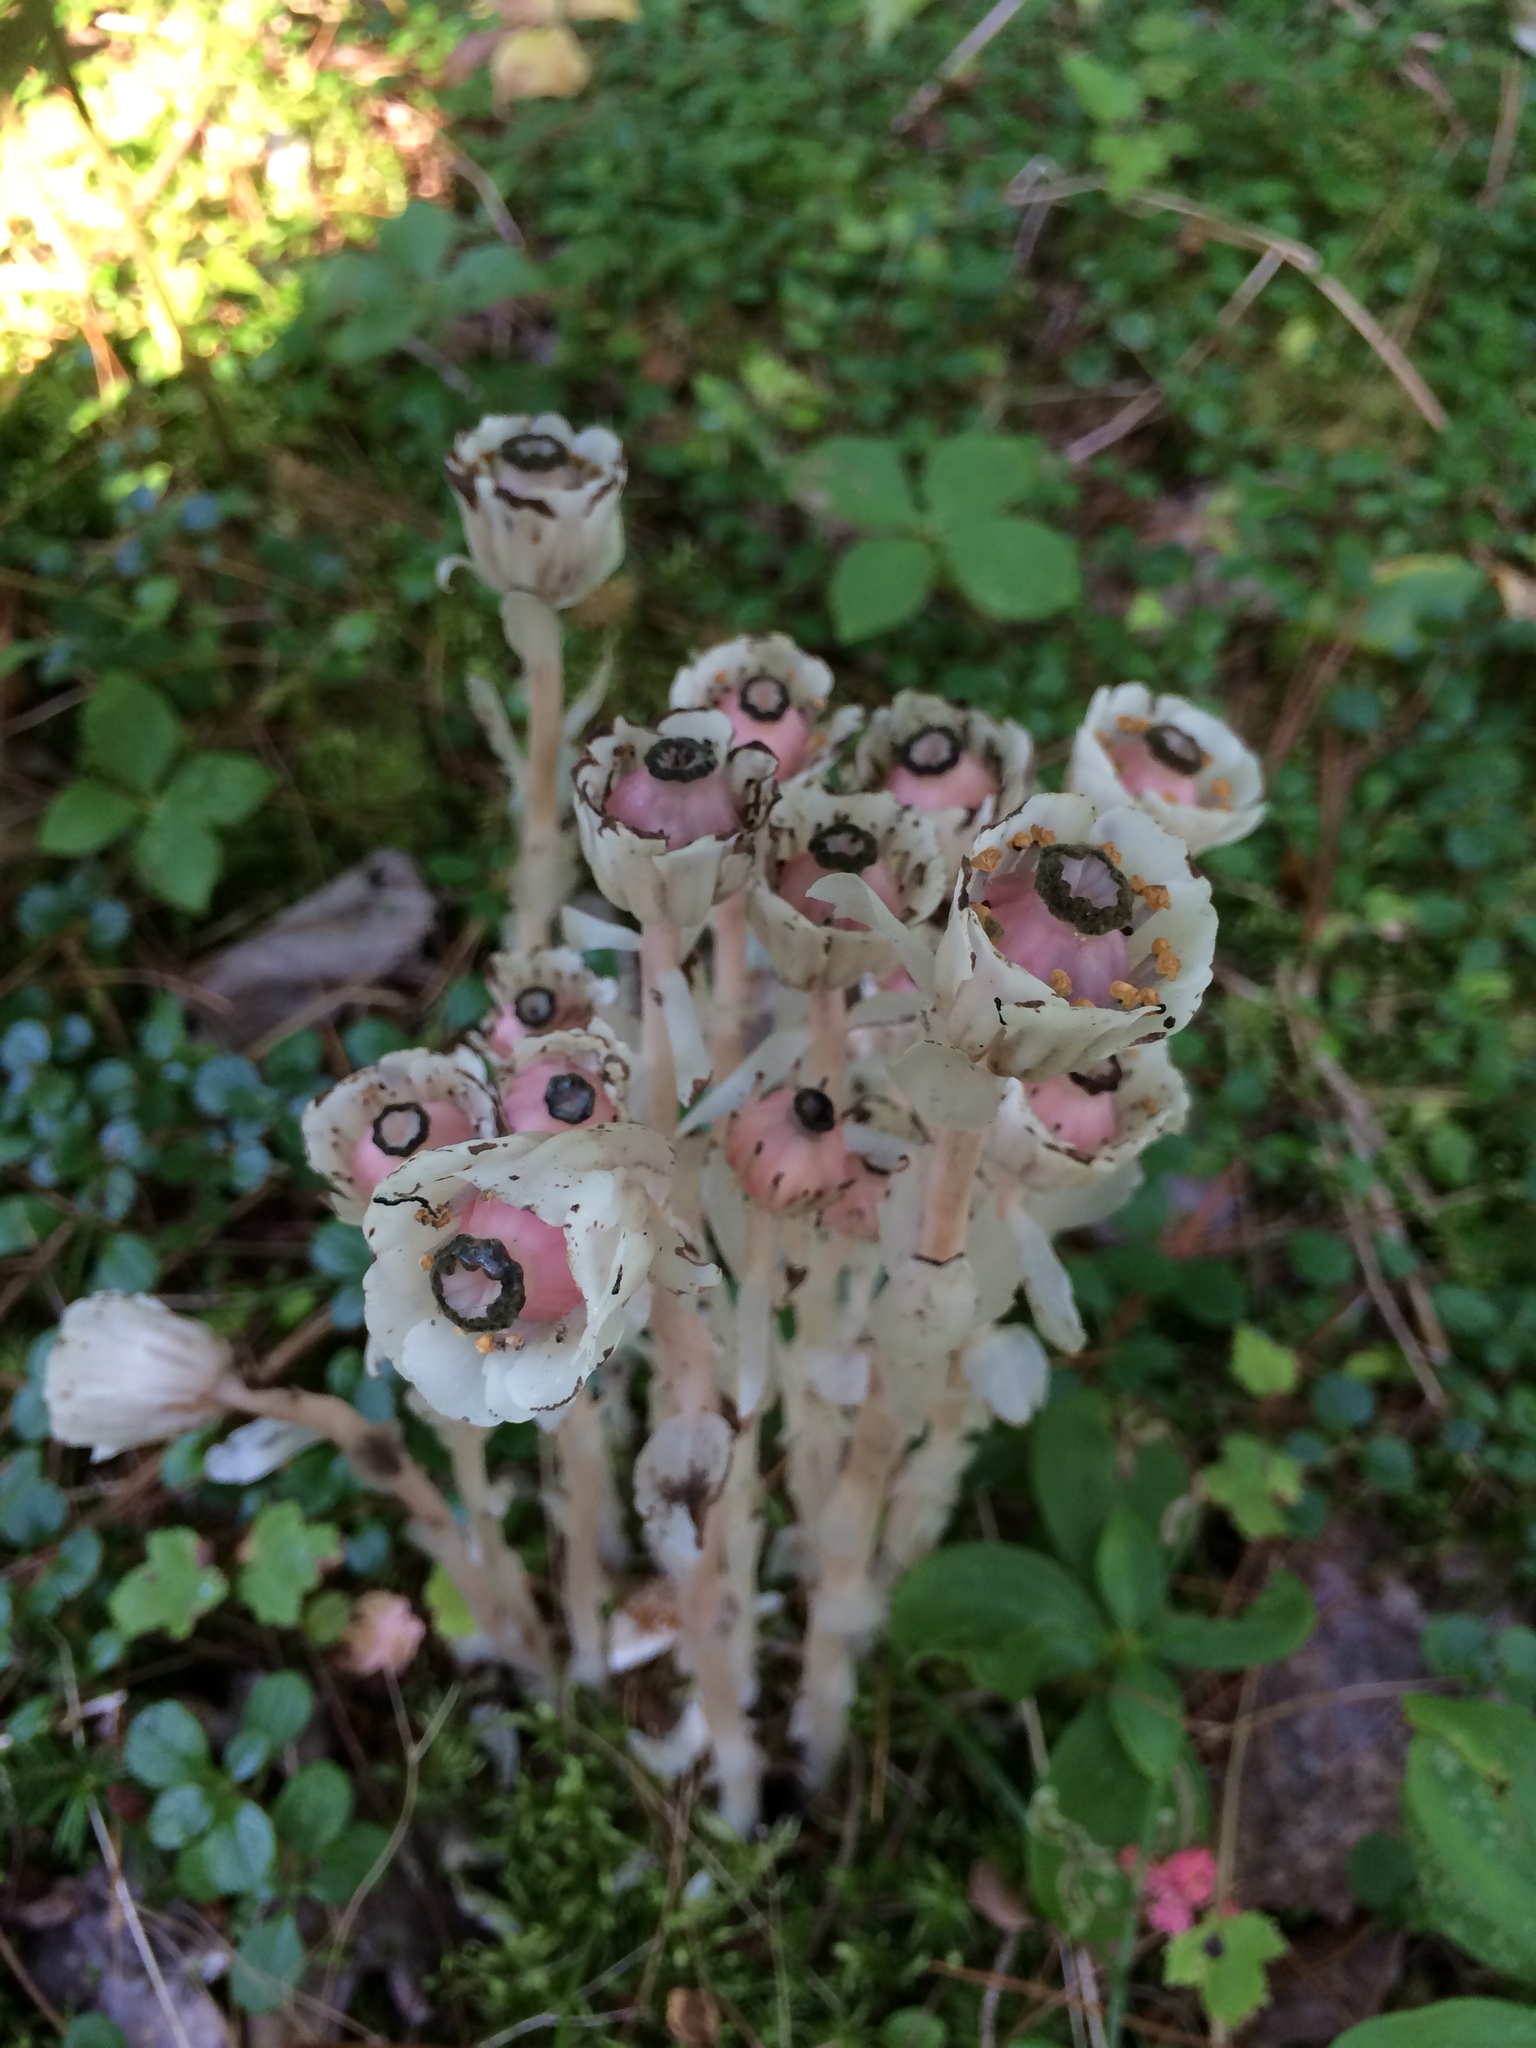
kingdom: Plantae
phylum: Tracheophyta
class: Magnoliopsida
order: Ericales
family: Ericaceae
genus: Monotropa
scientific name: Monotropa uniflora
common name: Convulsion root
